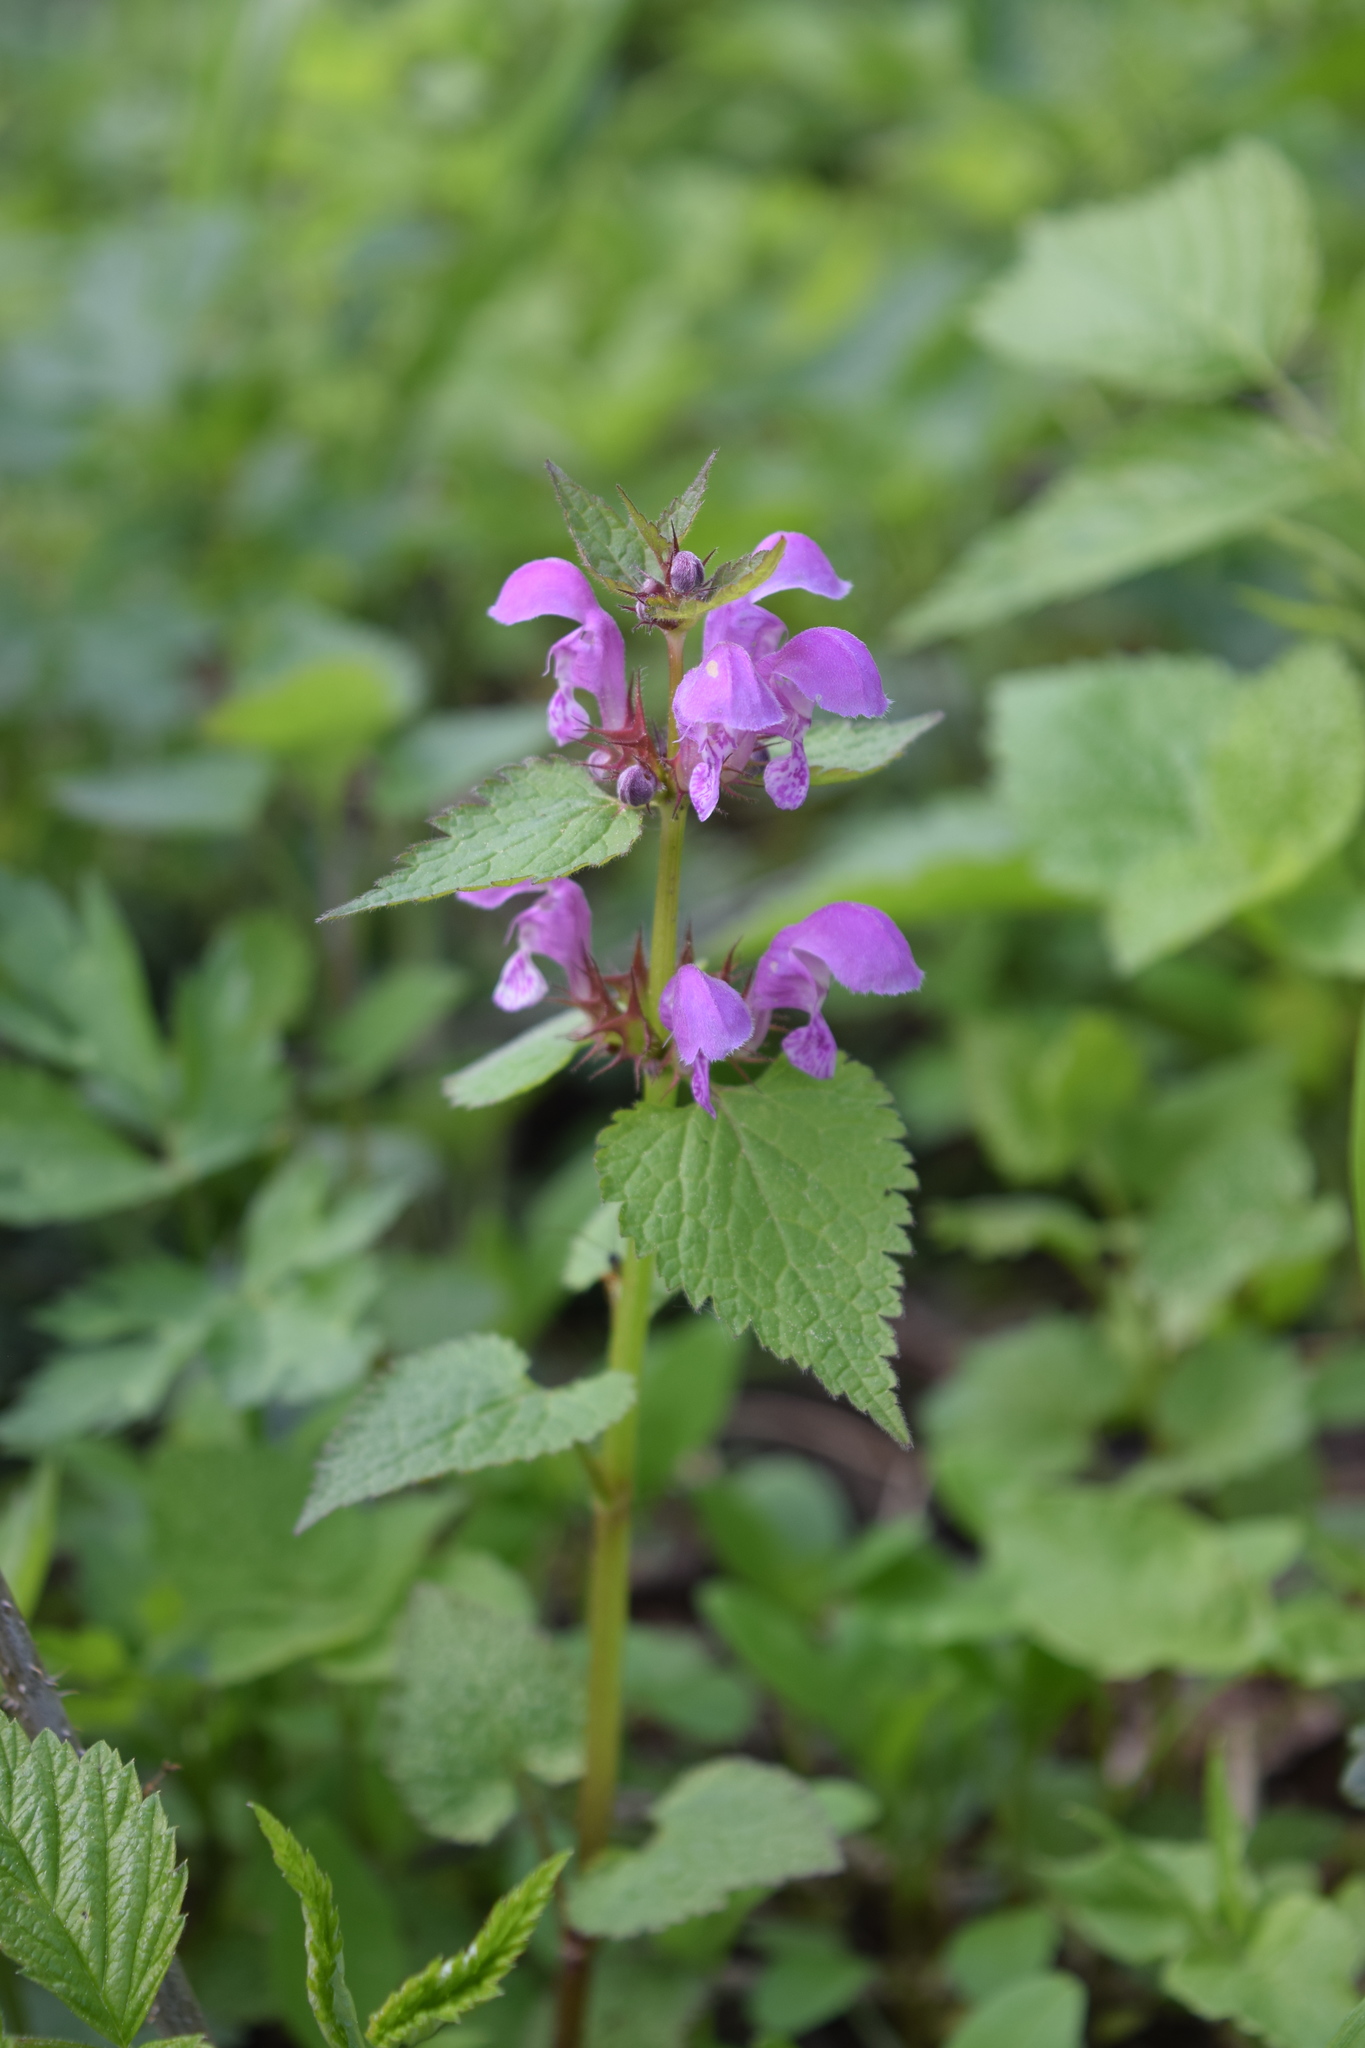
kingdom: Plantae
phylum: Tracheophyta
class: Magnoliopsida
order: Lamiales
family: Lamiaceae
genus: Lamium
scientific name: Lamium maculatum
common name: Spotted dead-nettle
